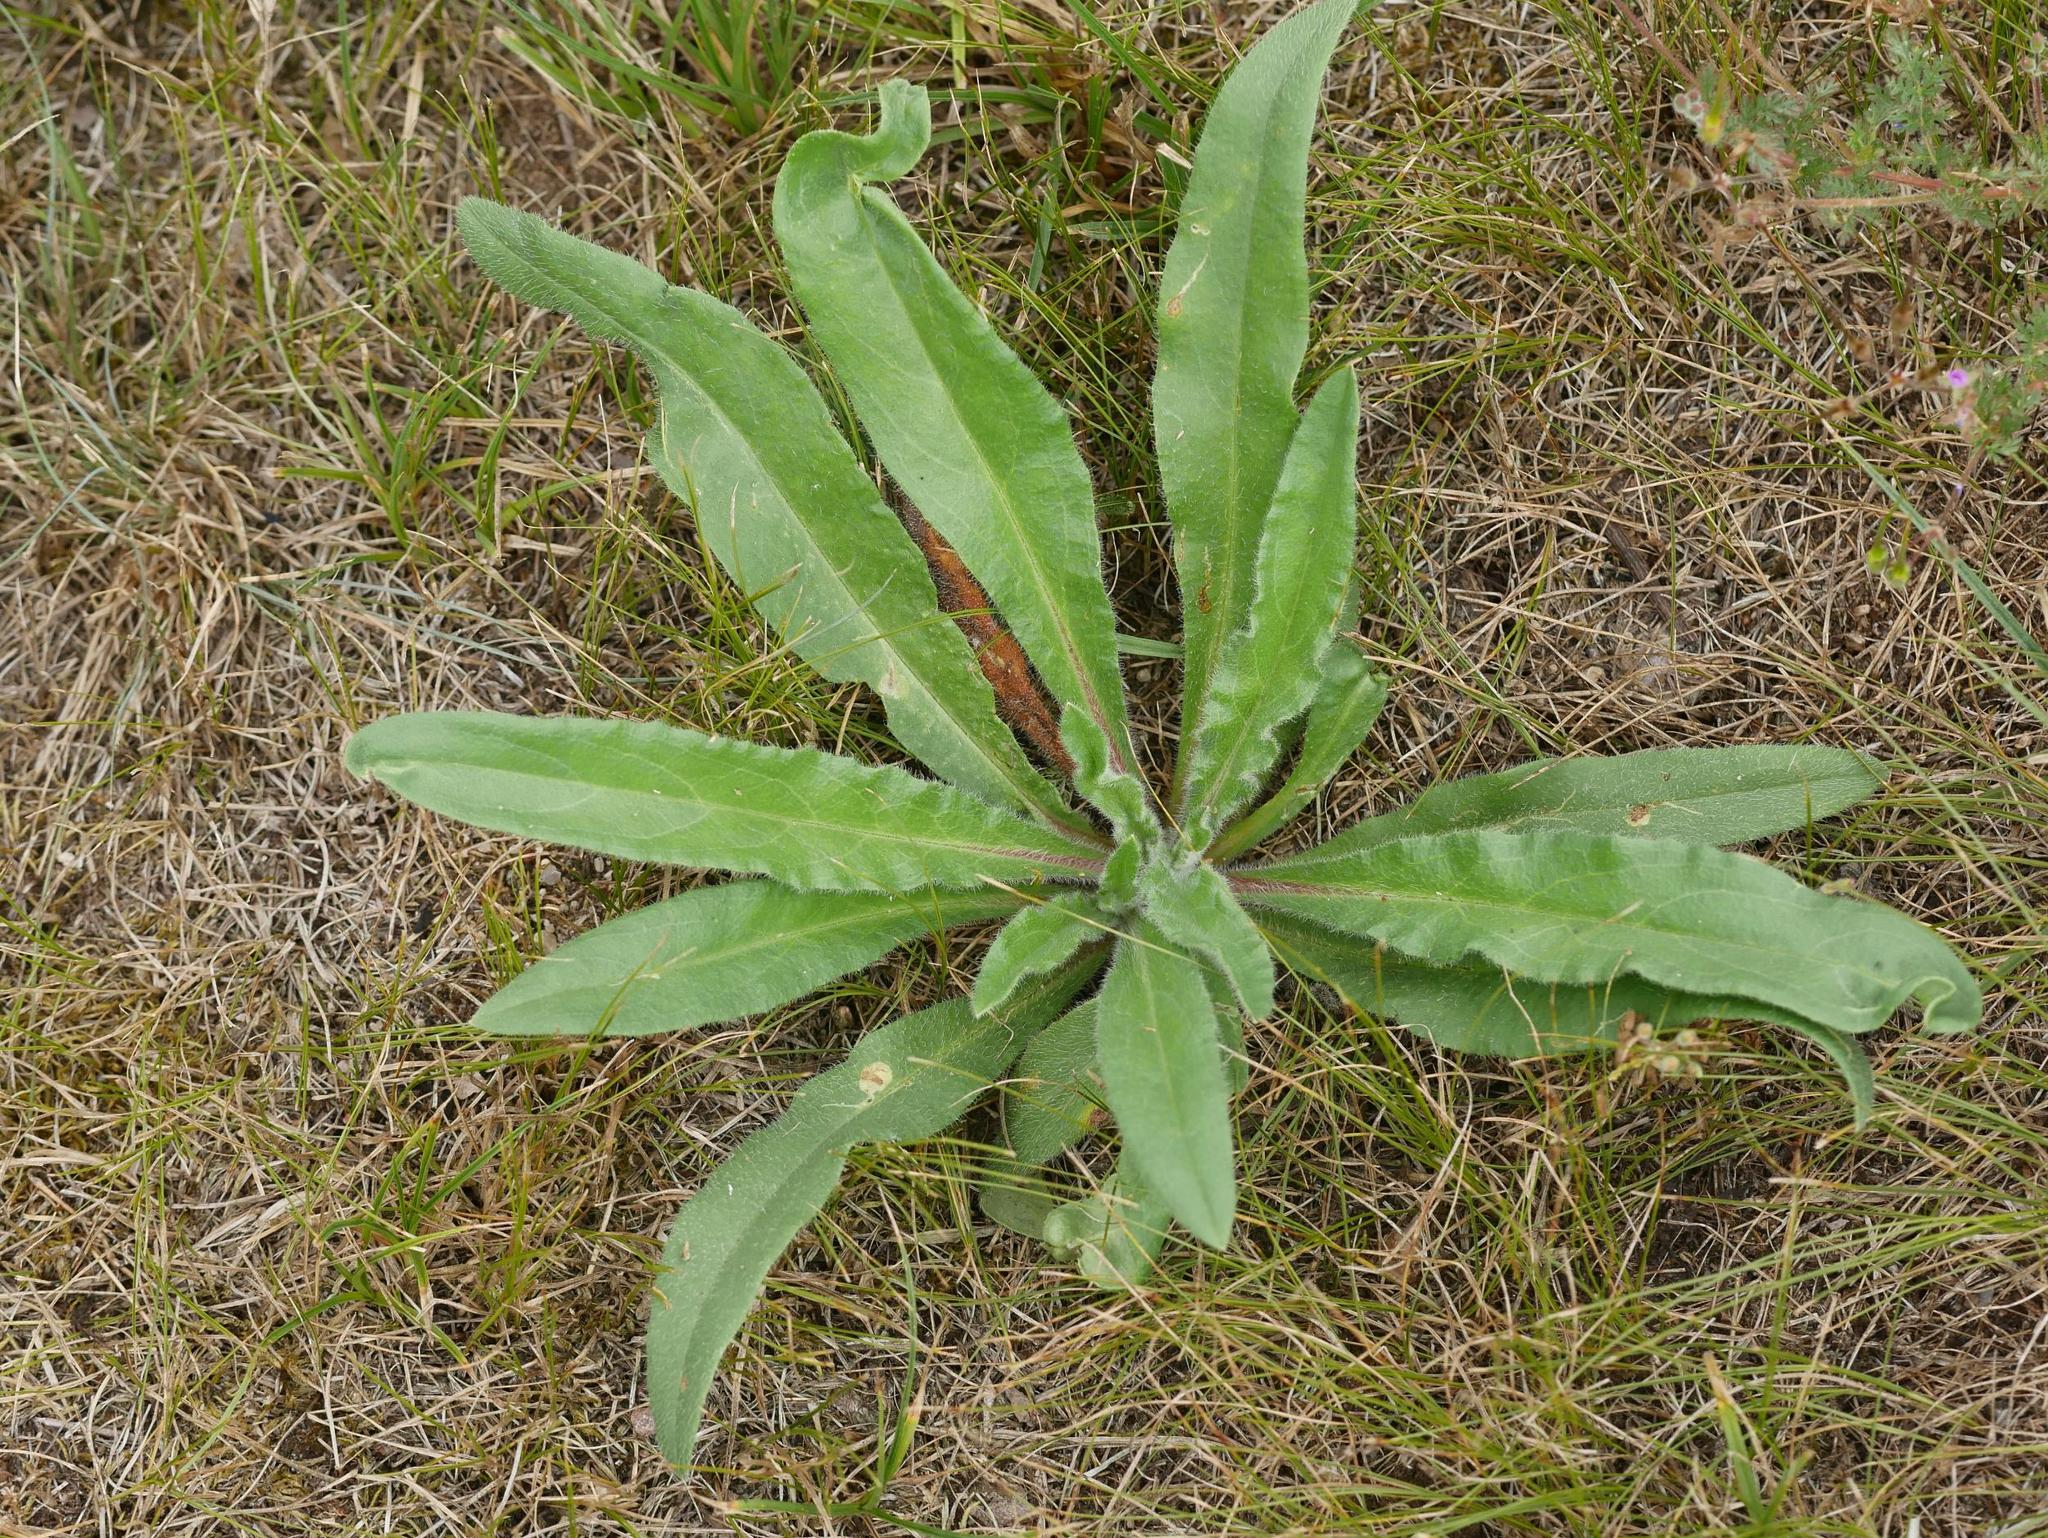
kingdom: Plantae
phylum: Tracheophyta
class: Magnoliopsida
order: Boraginales
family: Boraginaceae
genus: Echium
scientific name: Echium vulgare
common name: Common viper's bugloss
